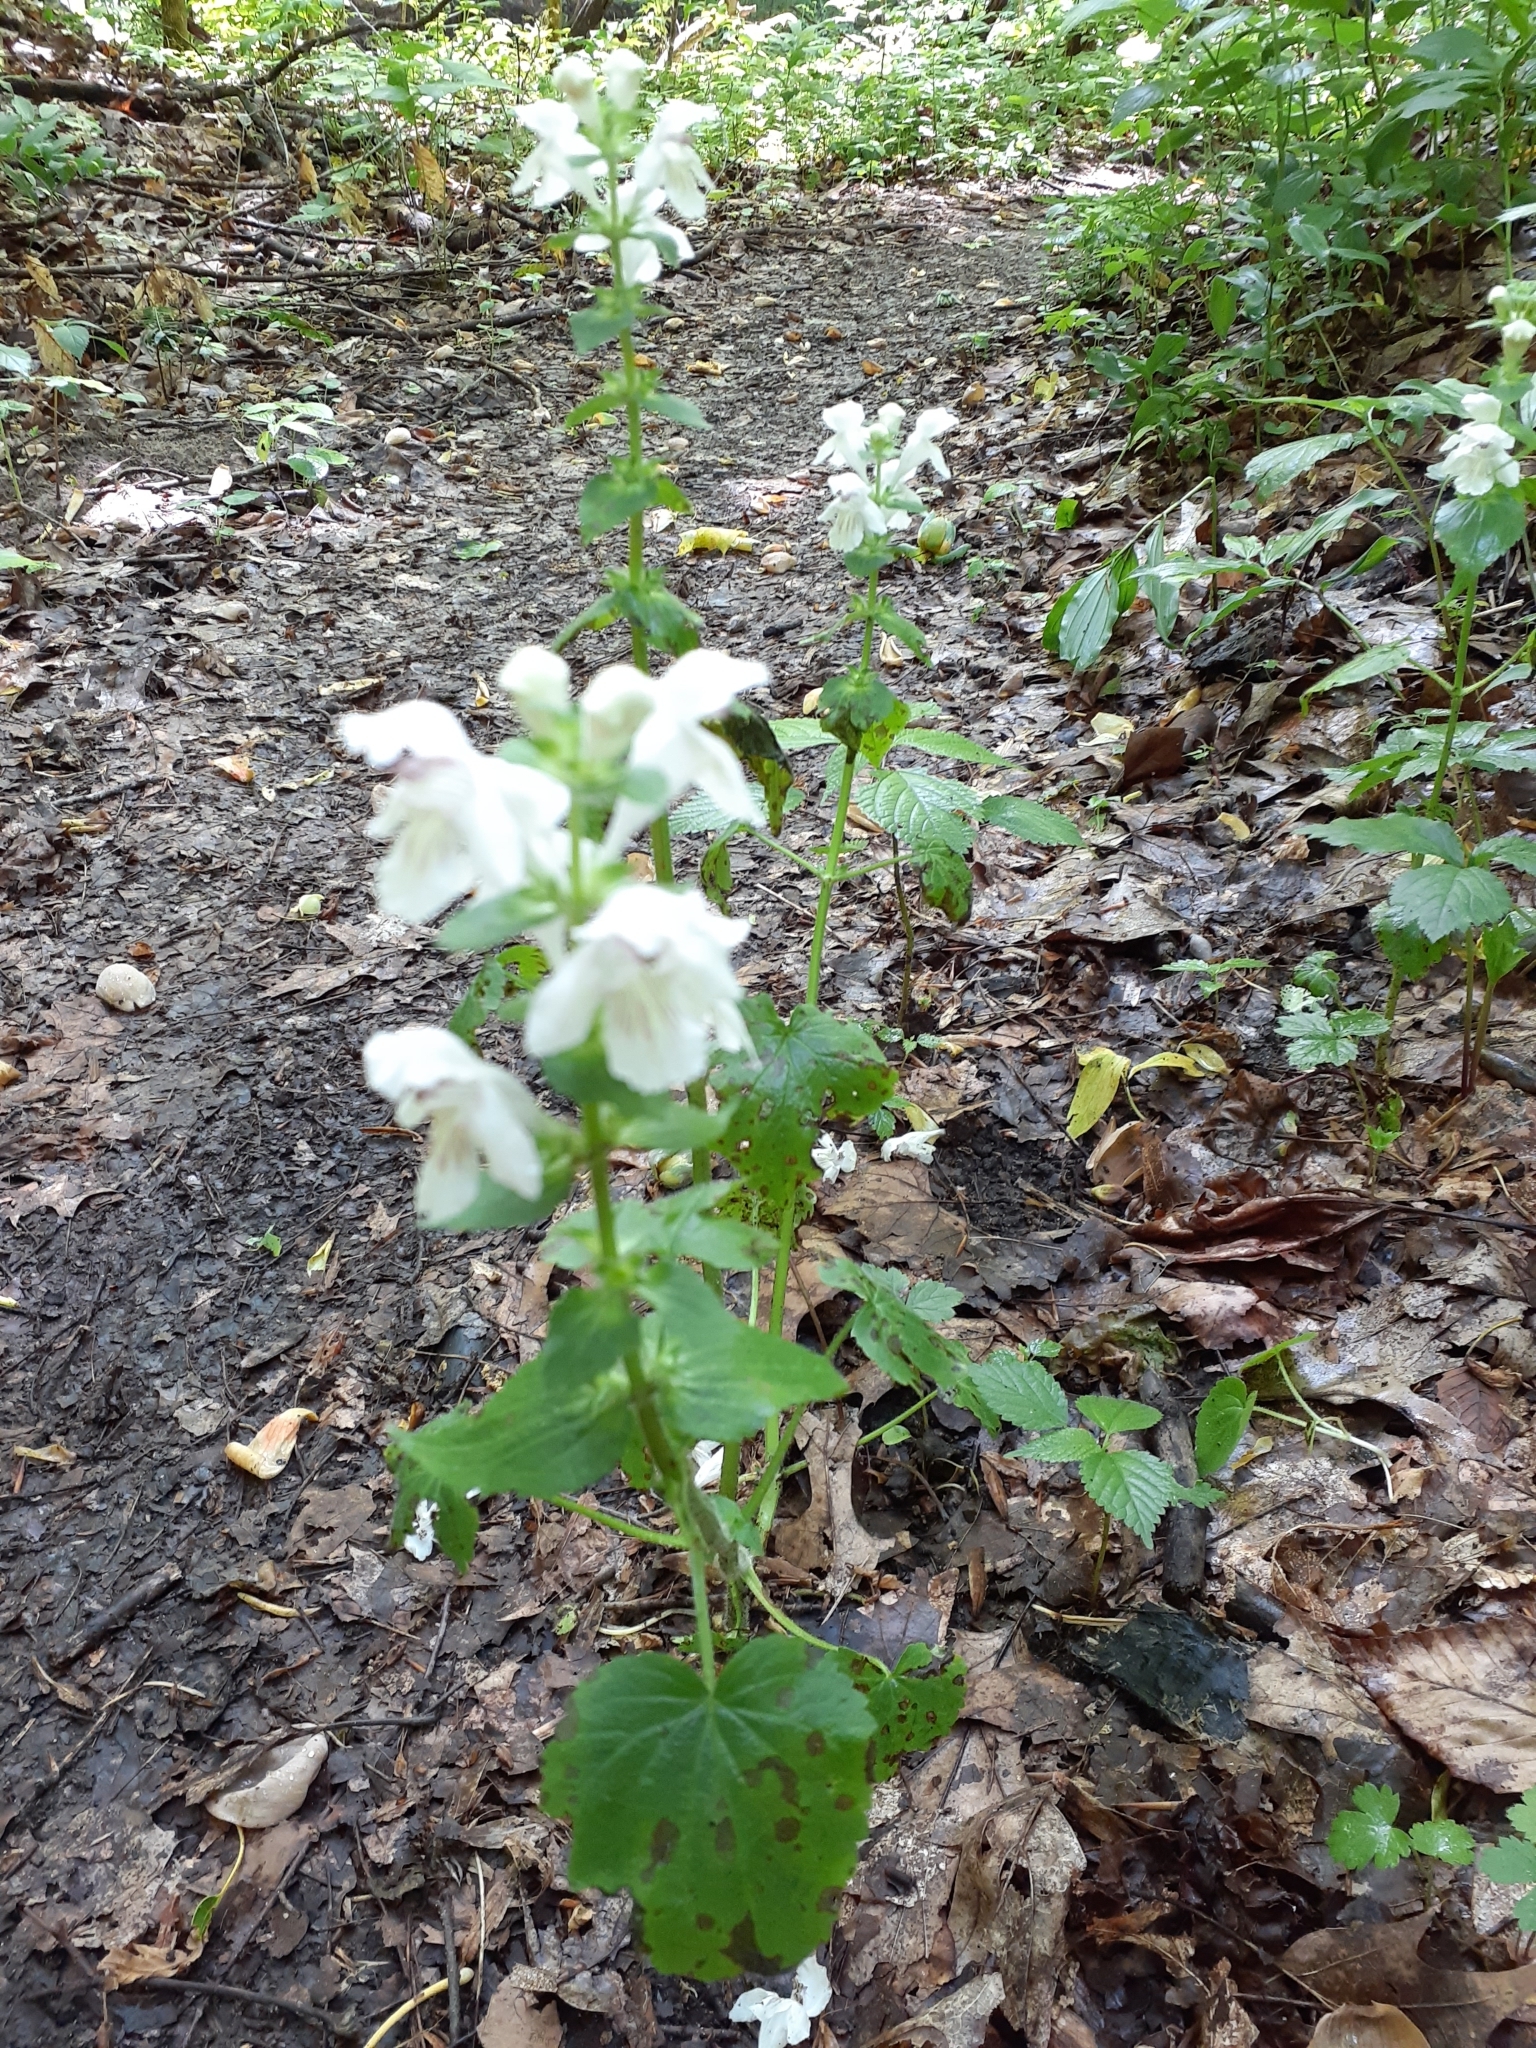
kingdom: Plantae
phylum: Tracheophyta
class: Magnoliopsida
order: Lamiales
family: Lamiaceae
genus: Synandra
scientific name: Synandra hispidula
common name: Synandra
